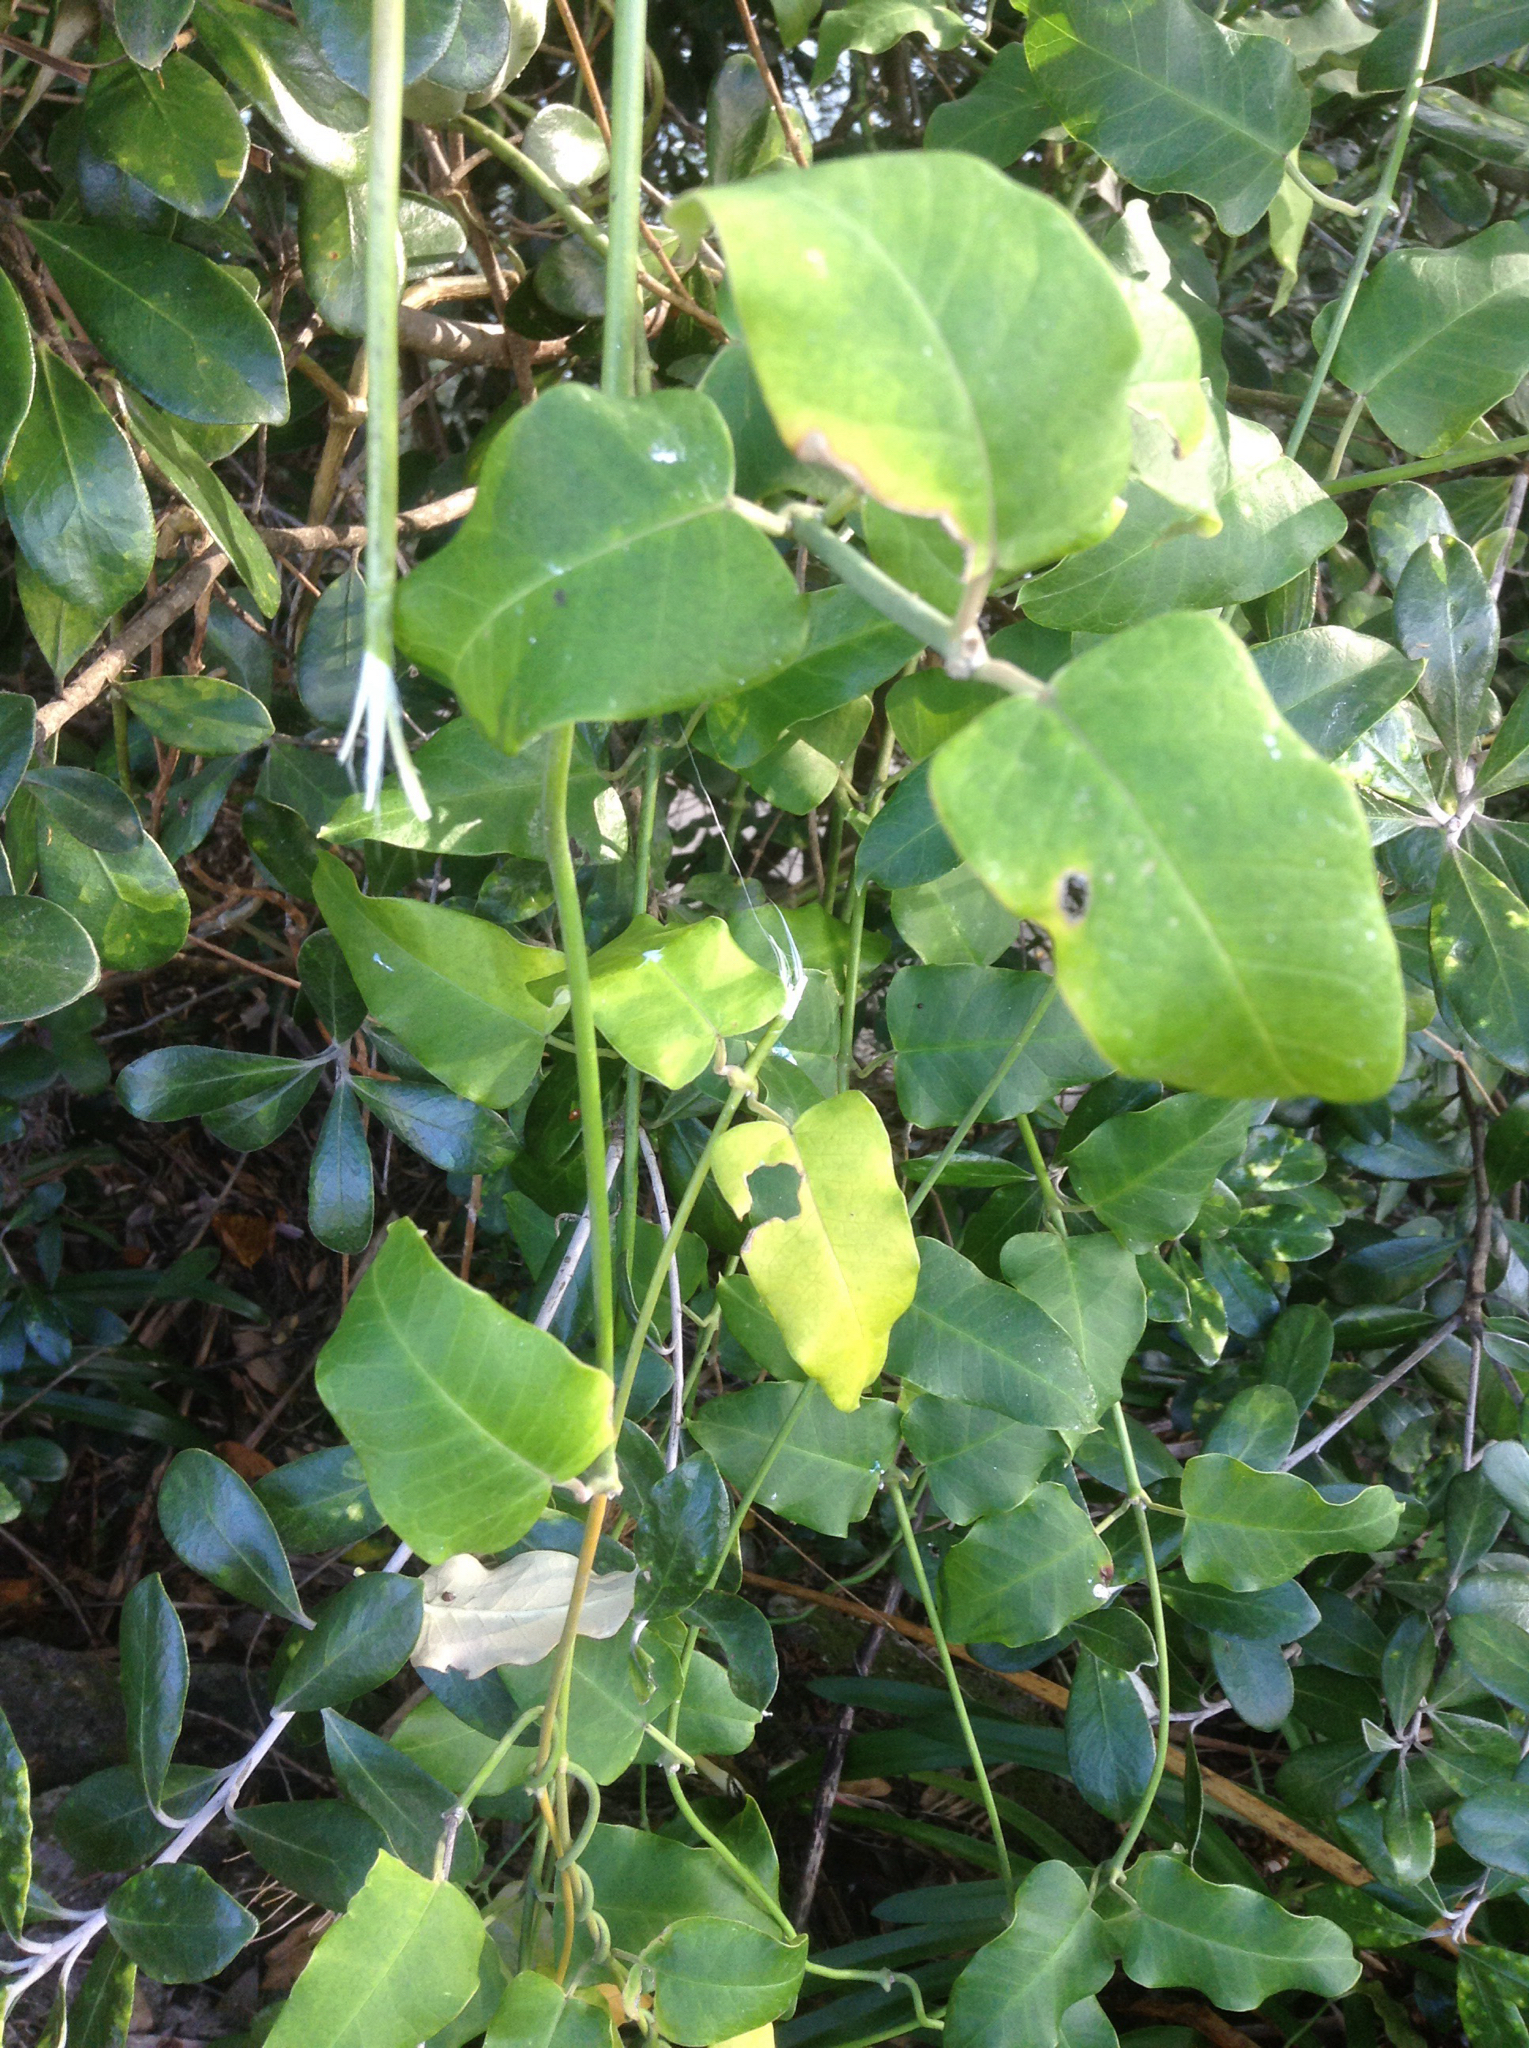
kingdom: Plantae
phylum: Tracheophyta
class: Magnoliopsida
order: Gentianales
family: Apocynaceae
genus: Araujia
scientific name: Araujia sericifera
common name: White bladderflower
